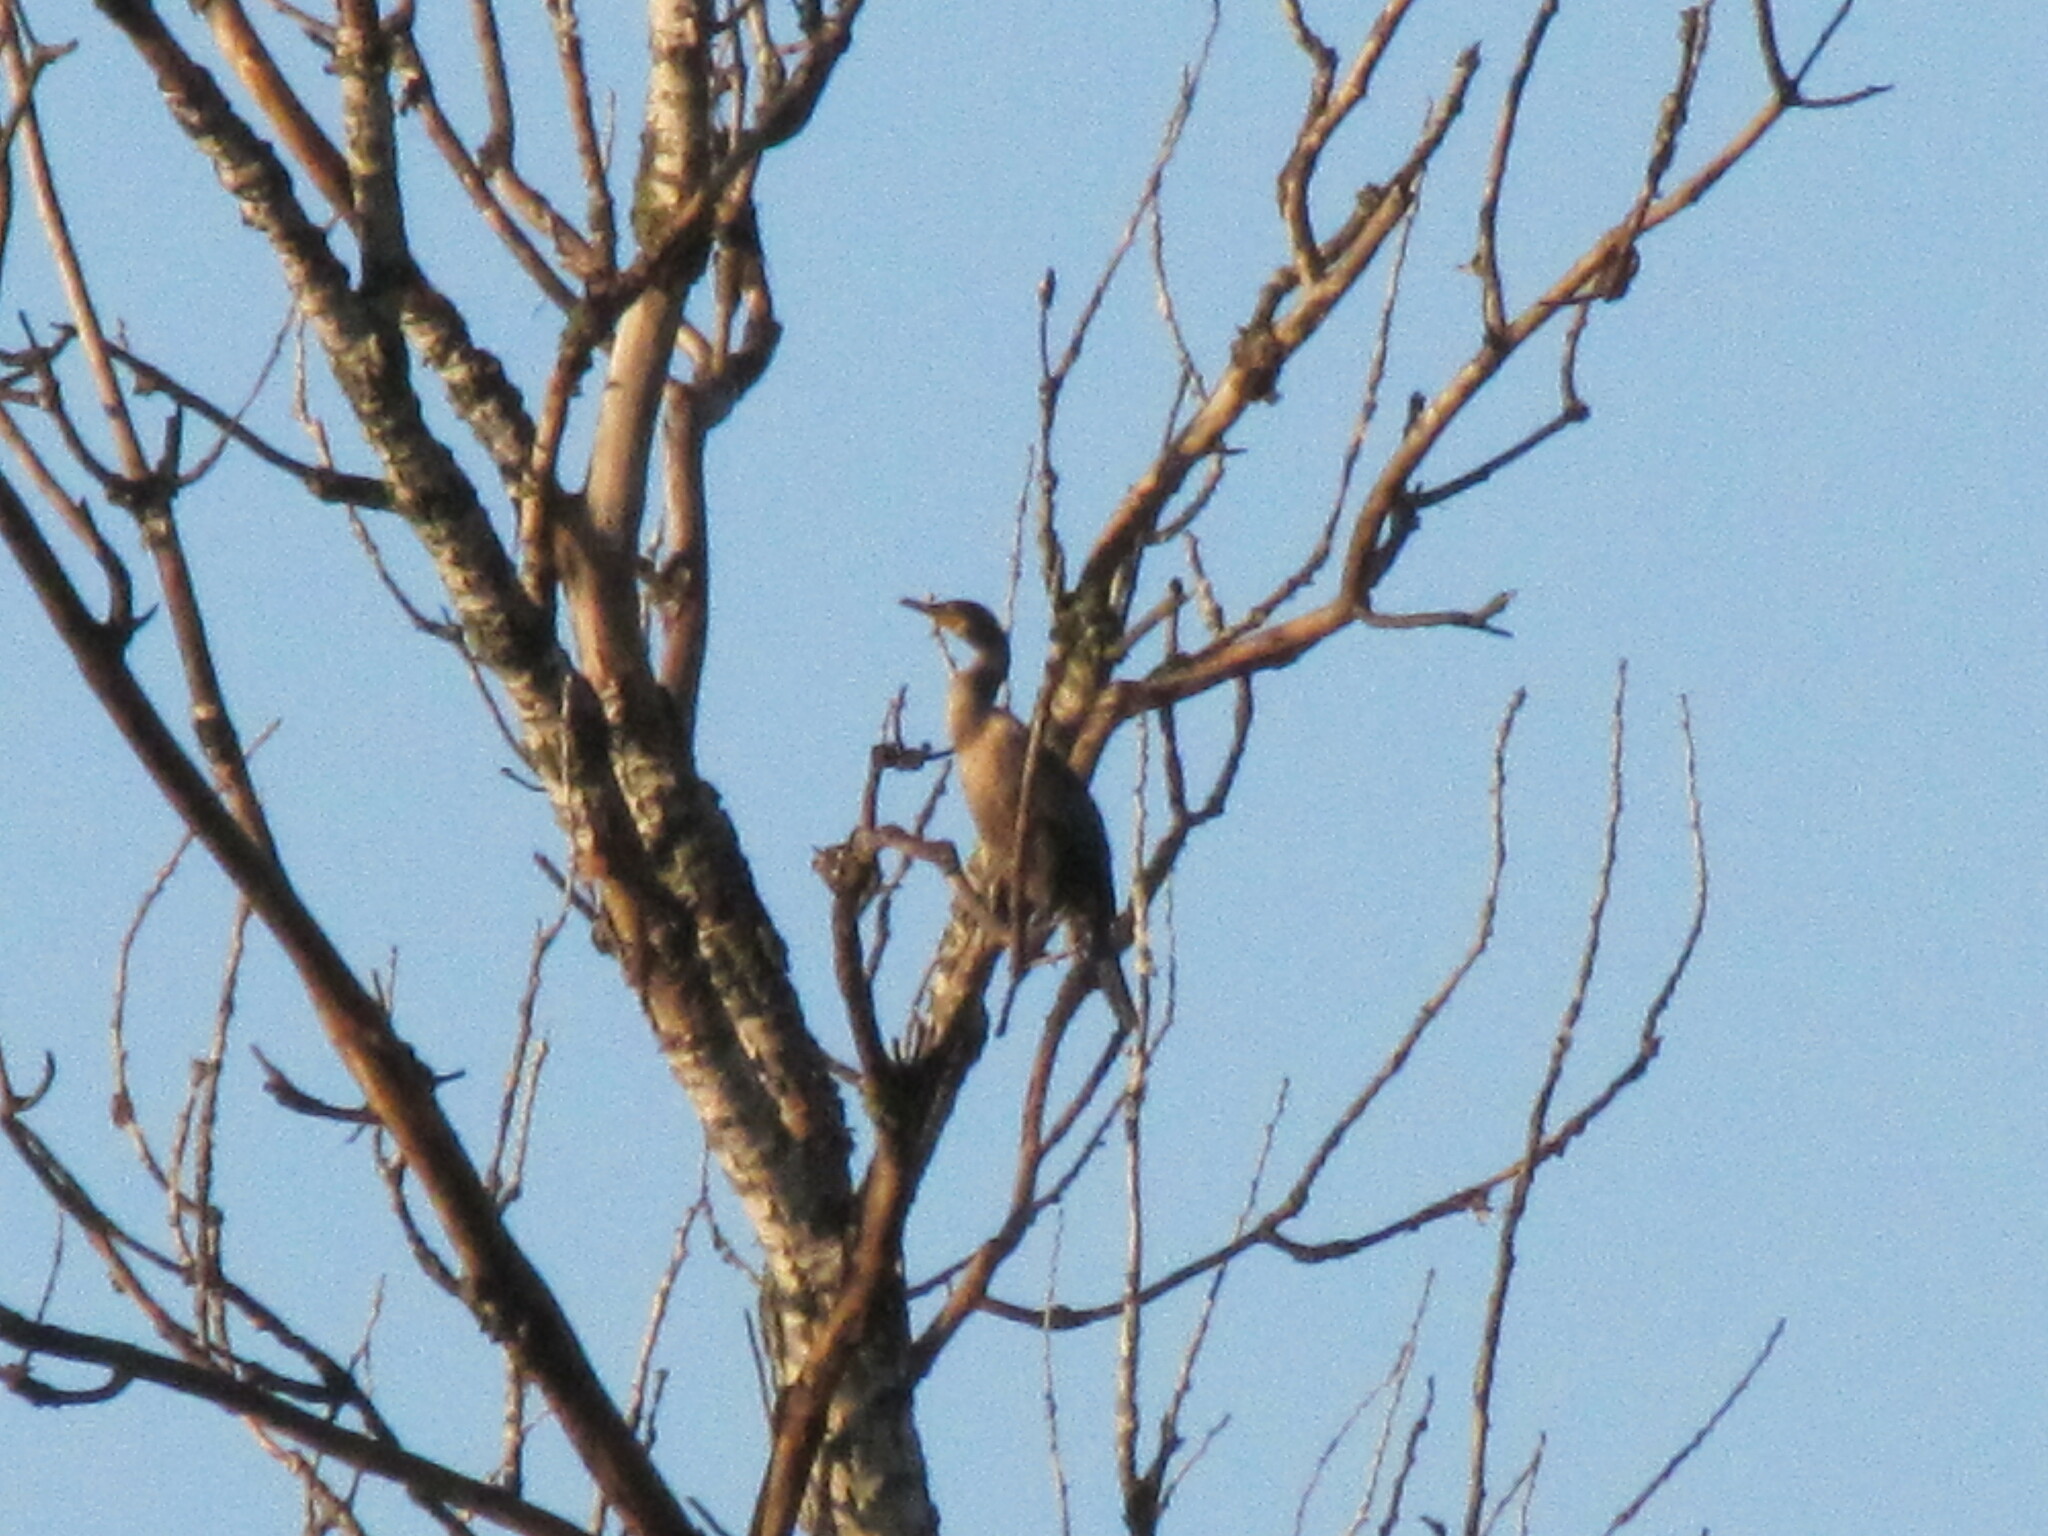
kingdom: Animalia
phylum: Chordata
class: Aves
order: Suliformes
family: Phalacrocoracidae
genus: Phalacrocorax
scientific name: Phalacrocorax auritus
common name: Double-crested cormorant
